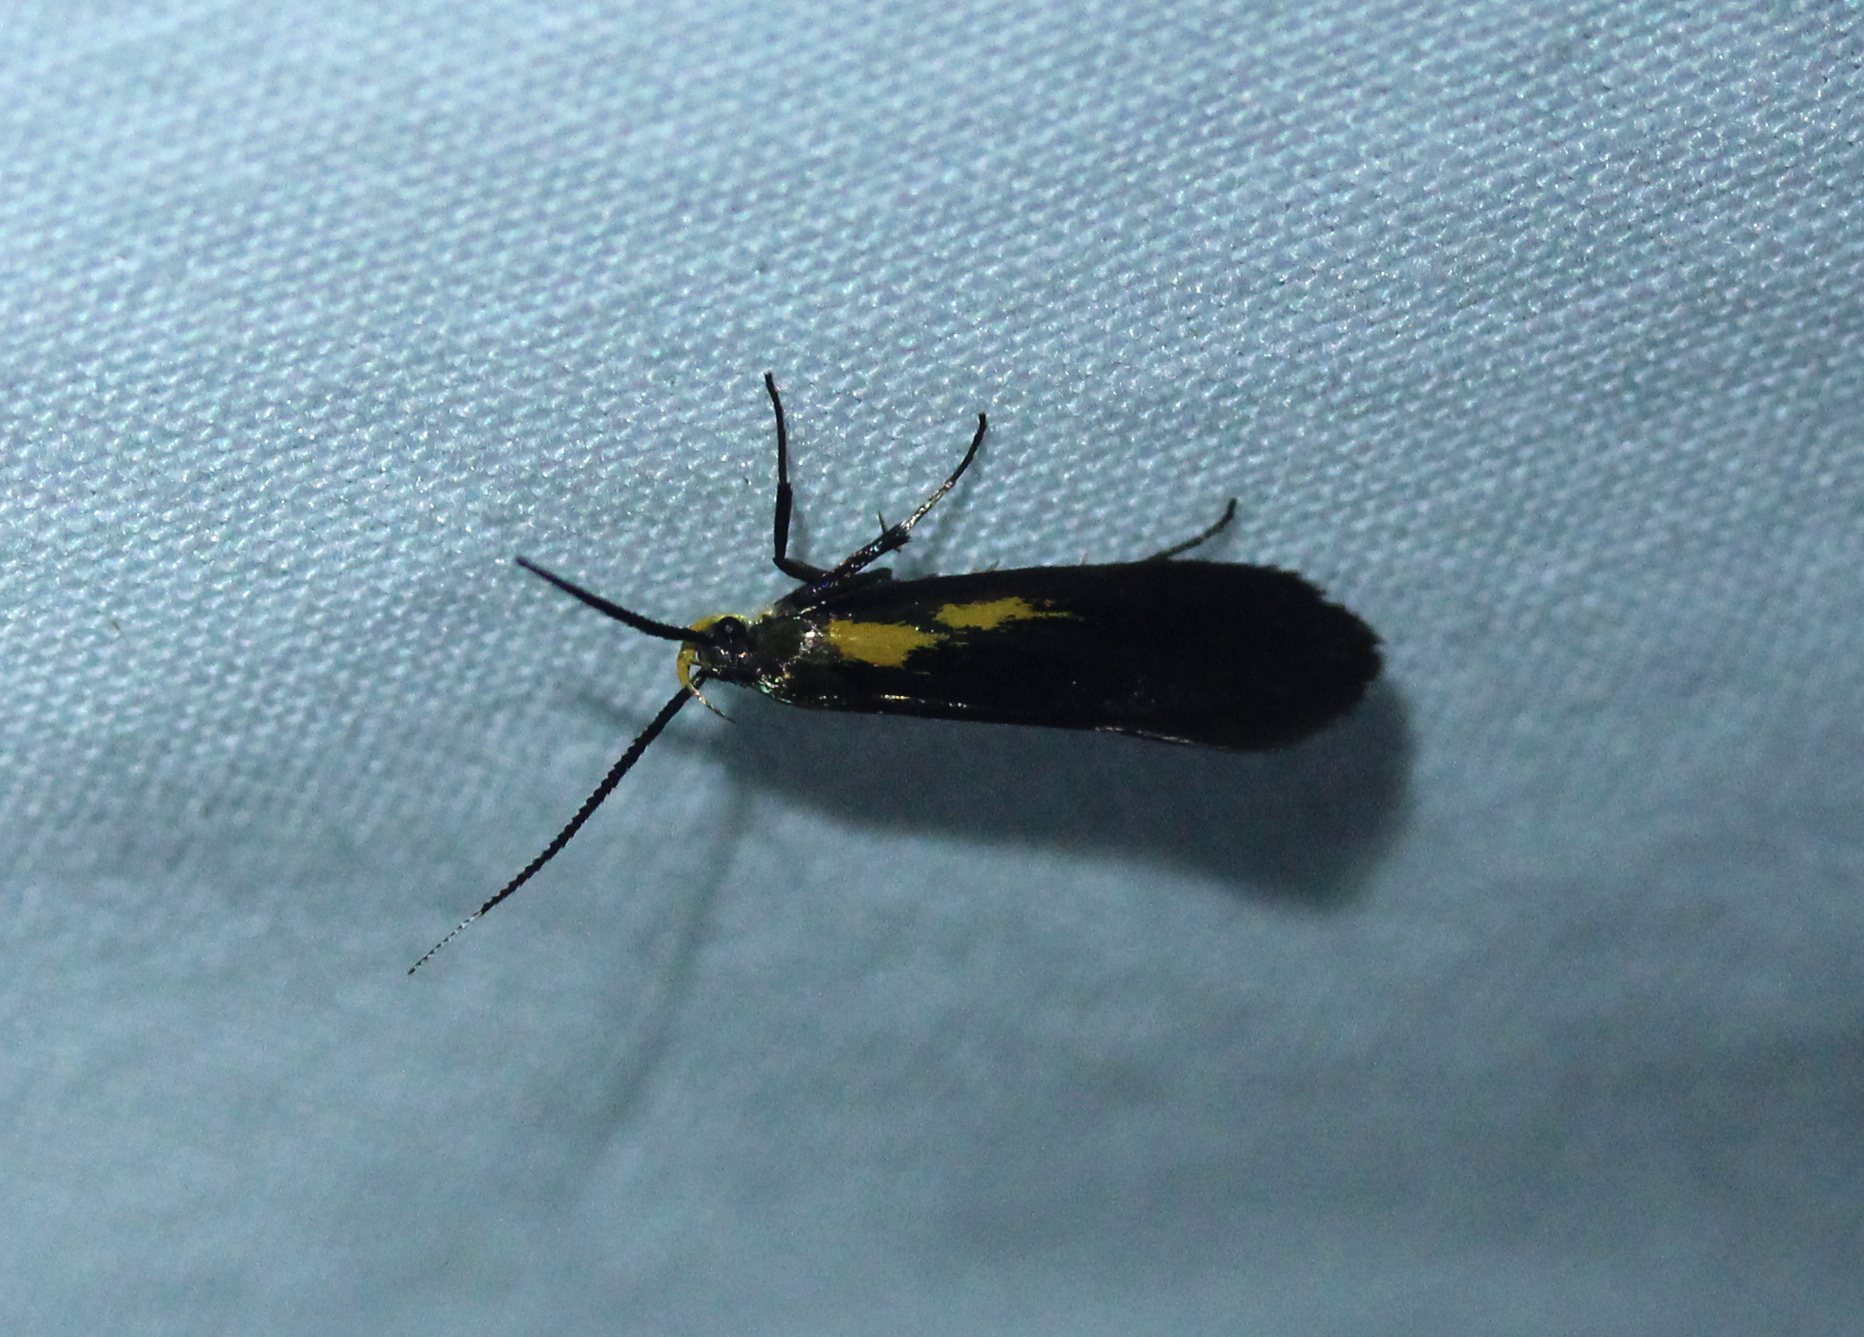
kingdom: Animalia
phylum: Arthropoda
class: Insecta
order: Lepidoptera
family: Oecophoridae
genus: Mathildana
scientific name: Mathildana newmanella
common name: Newman's mathildana moth
